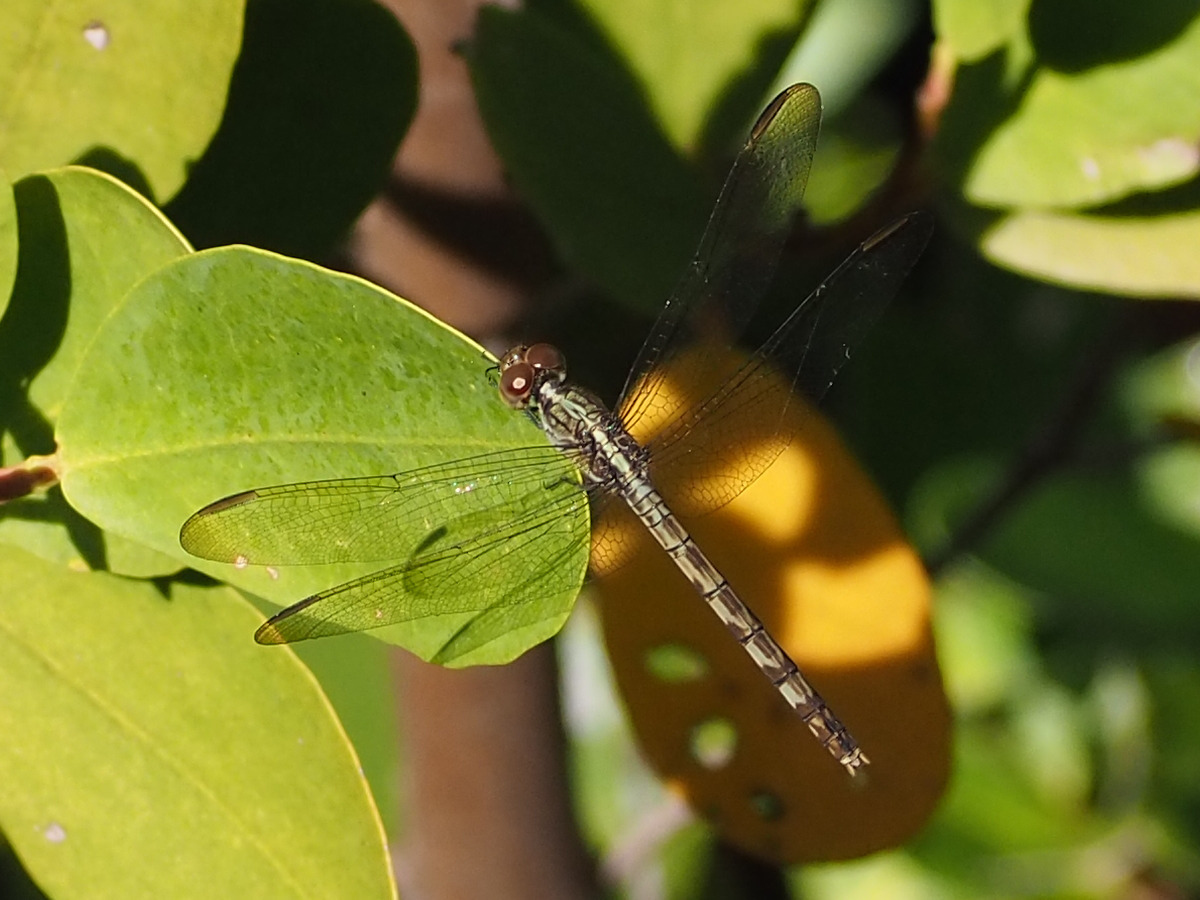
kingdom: Animalia
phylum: Arthropoda
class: Insecta
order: Odonata
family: Libellulidae
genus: Erythrodiplax
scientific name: Erythrodiplax umbrata
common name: Band-winged dragonlet
